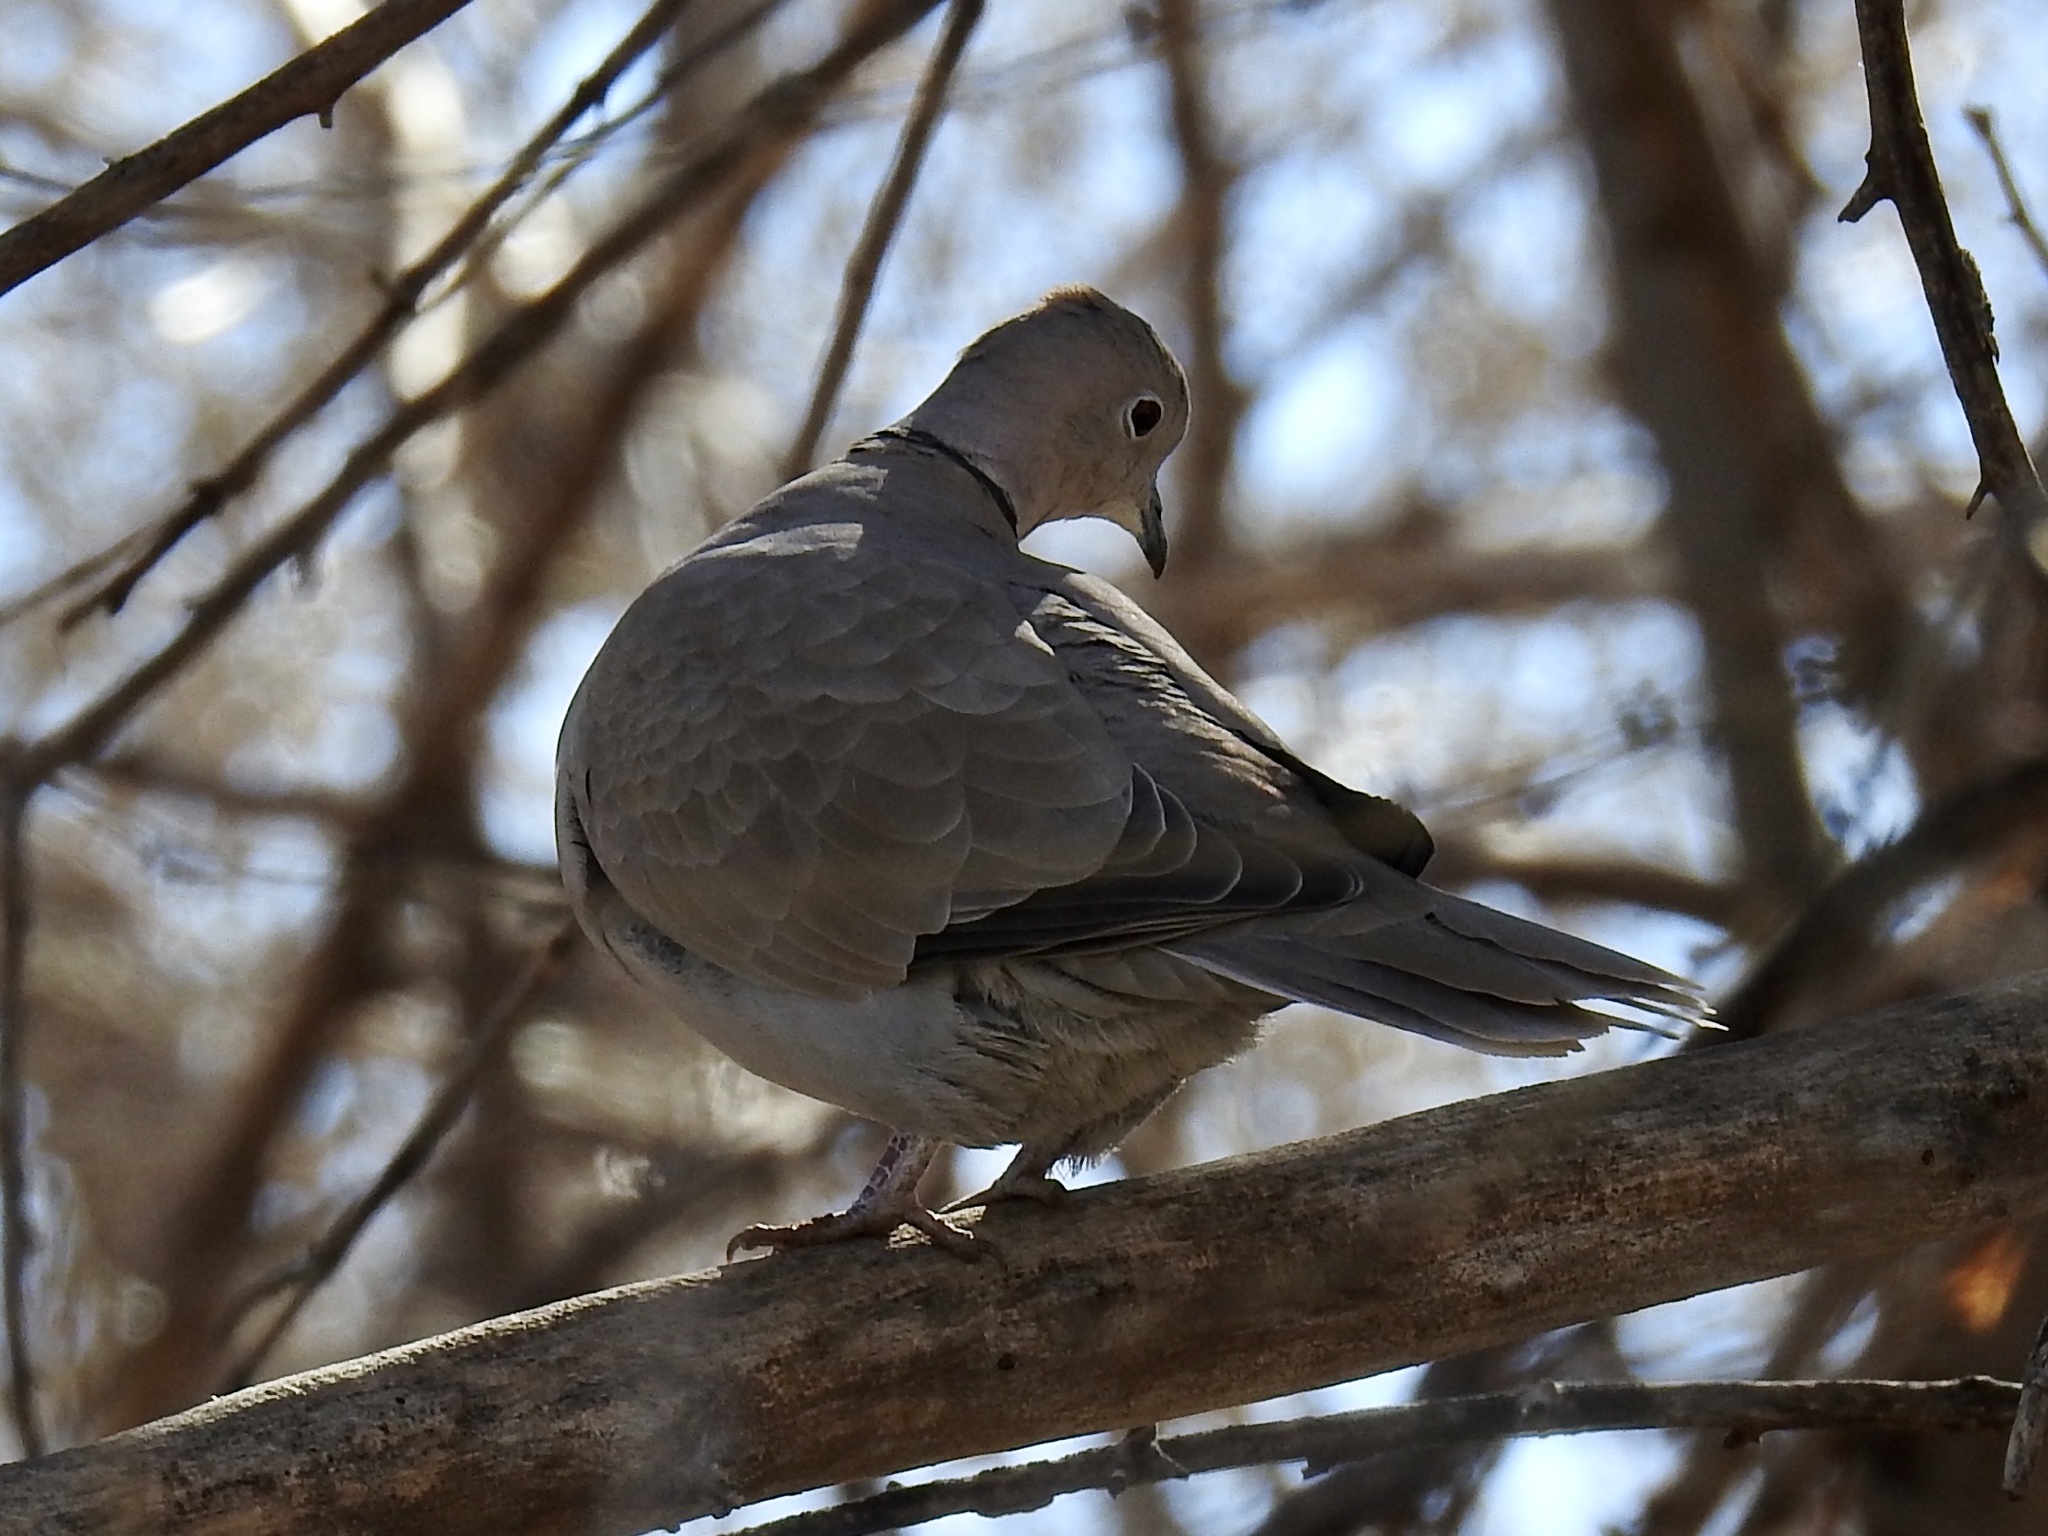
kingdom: Animalia
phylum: Chordata
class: Aves
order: Columbiformes
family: Columbidae
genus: Streptopelia
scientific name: Streptopelia decaocto
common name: Eurasian collared dove
